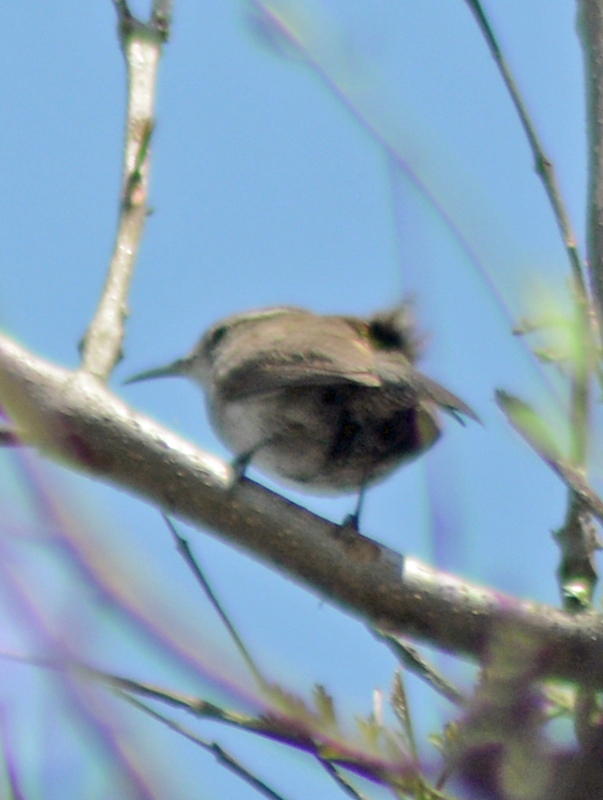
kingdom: Animalia
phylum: Chordata
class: Aves
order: Passeriformes
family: Troglodytidae
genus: Thryomanes
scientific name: Thryomanes bewickii
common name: Bewick's wren
